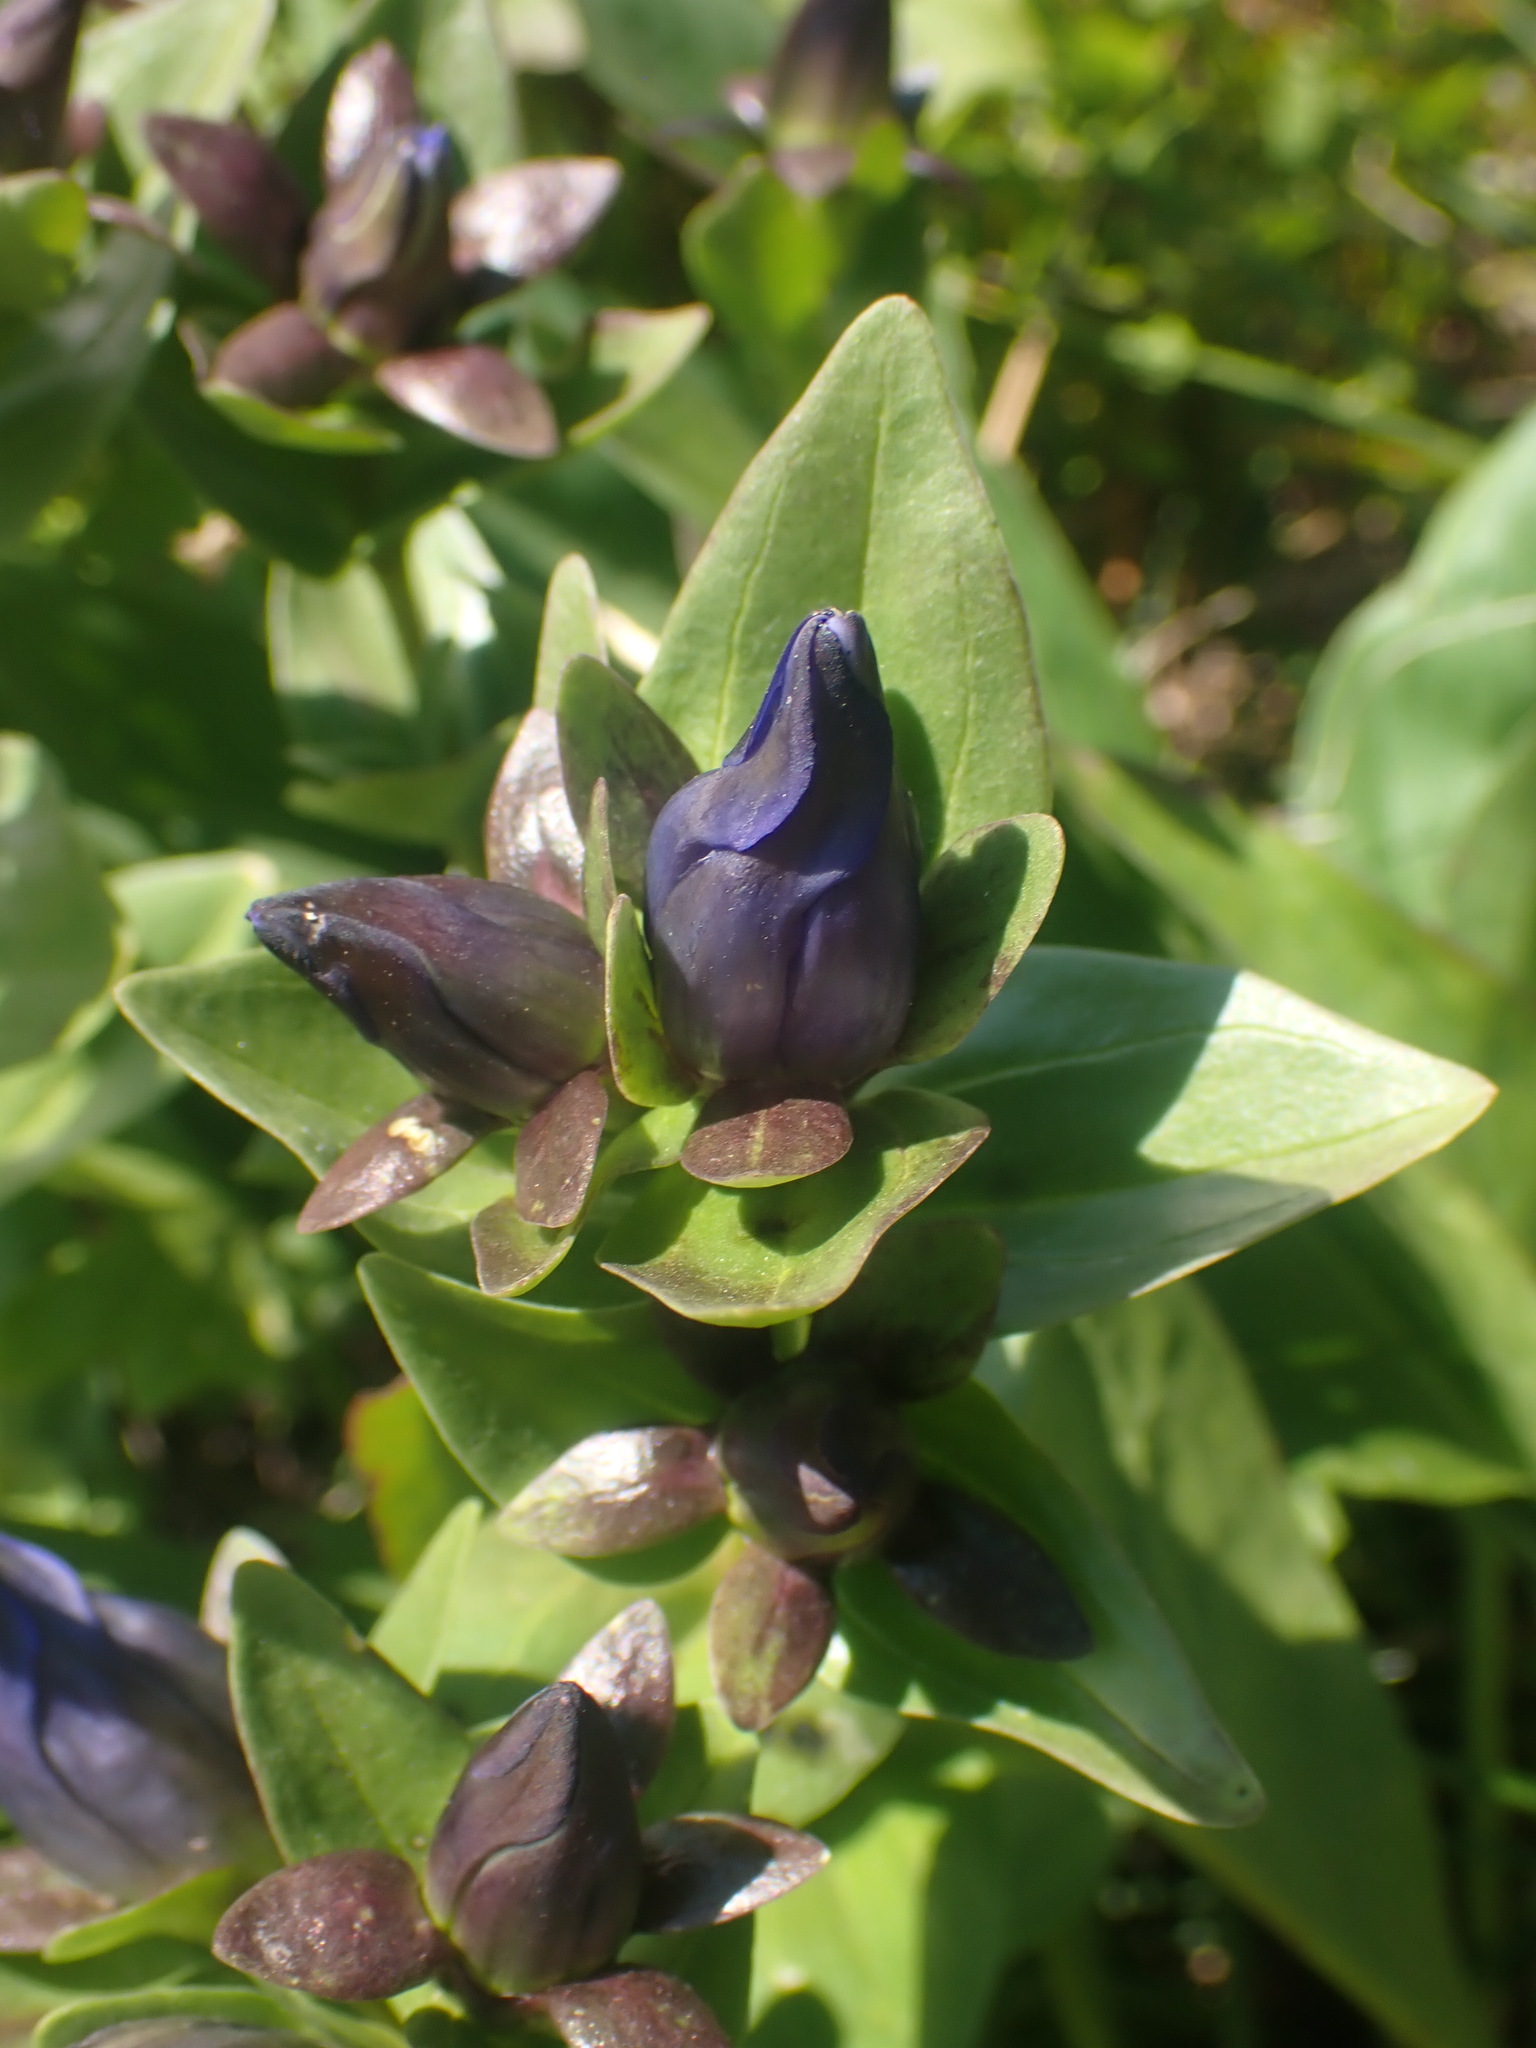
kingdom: Plantae
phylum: Tracheophyta
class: Magnoliopsida
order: Gentianales
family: Gentianaceae
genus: Gentiana
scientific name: Gentiana calycosa
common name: Rainier pleated gentian
